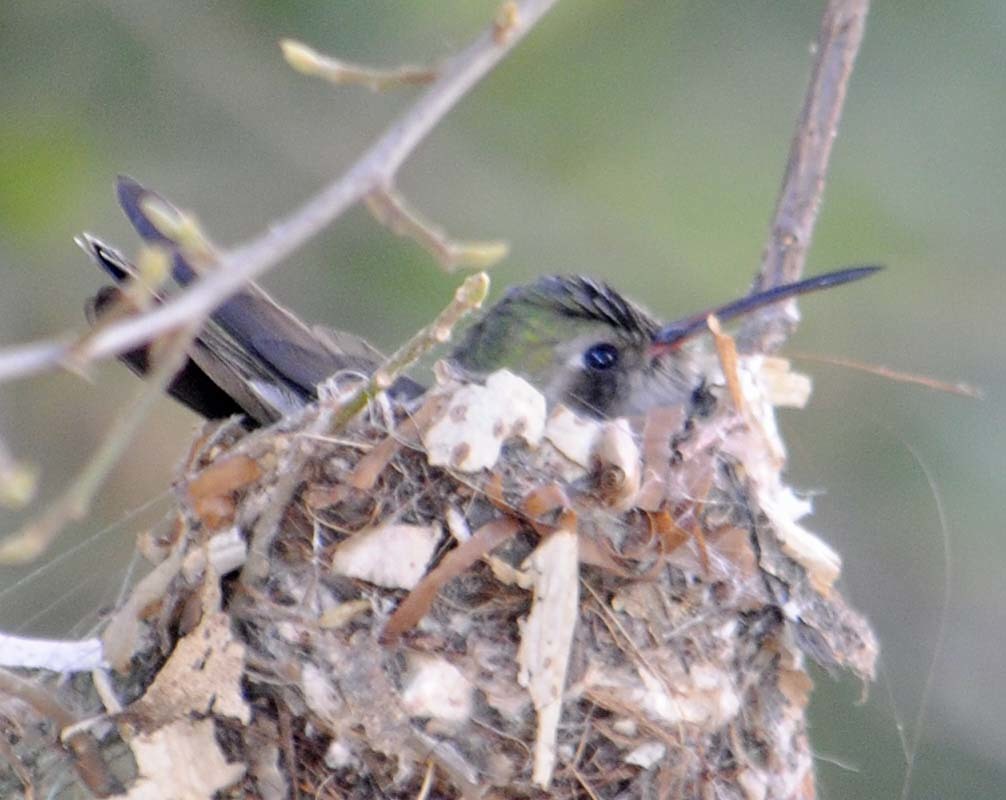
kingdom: Animalia
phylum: Chordata
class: Aves
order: Apodiformes
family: Trochilidae
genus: Cynanthus
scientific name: Cynanthus latirostris
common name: Broad-billed hummingbird
